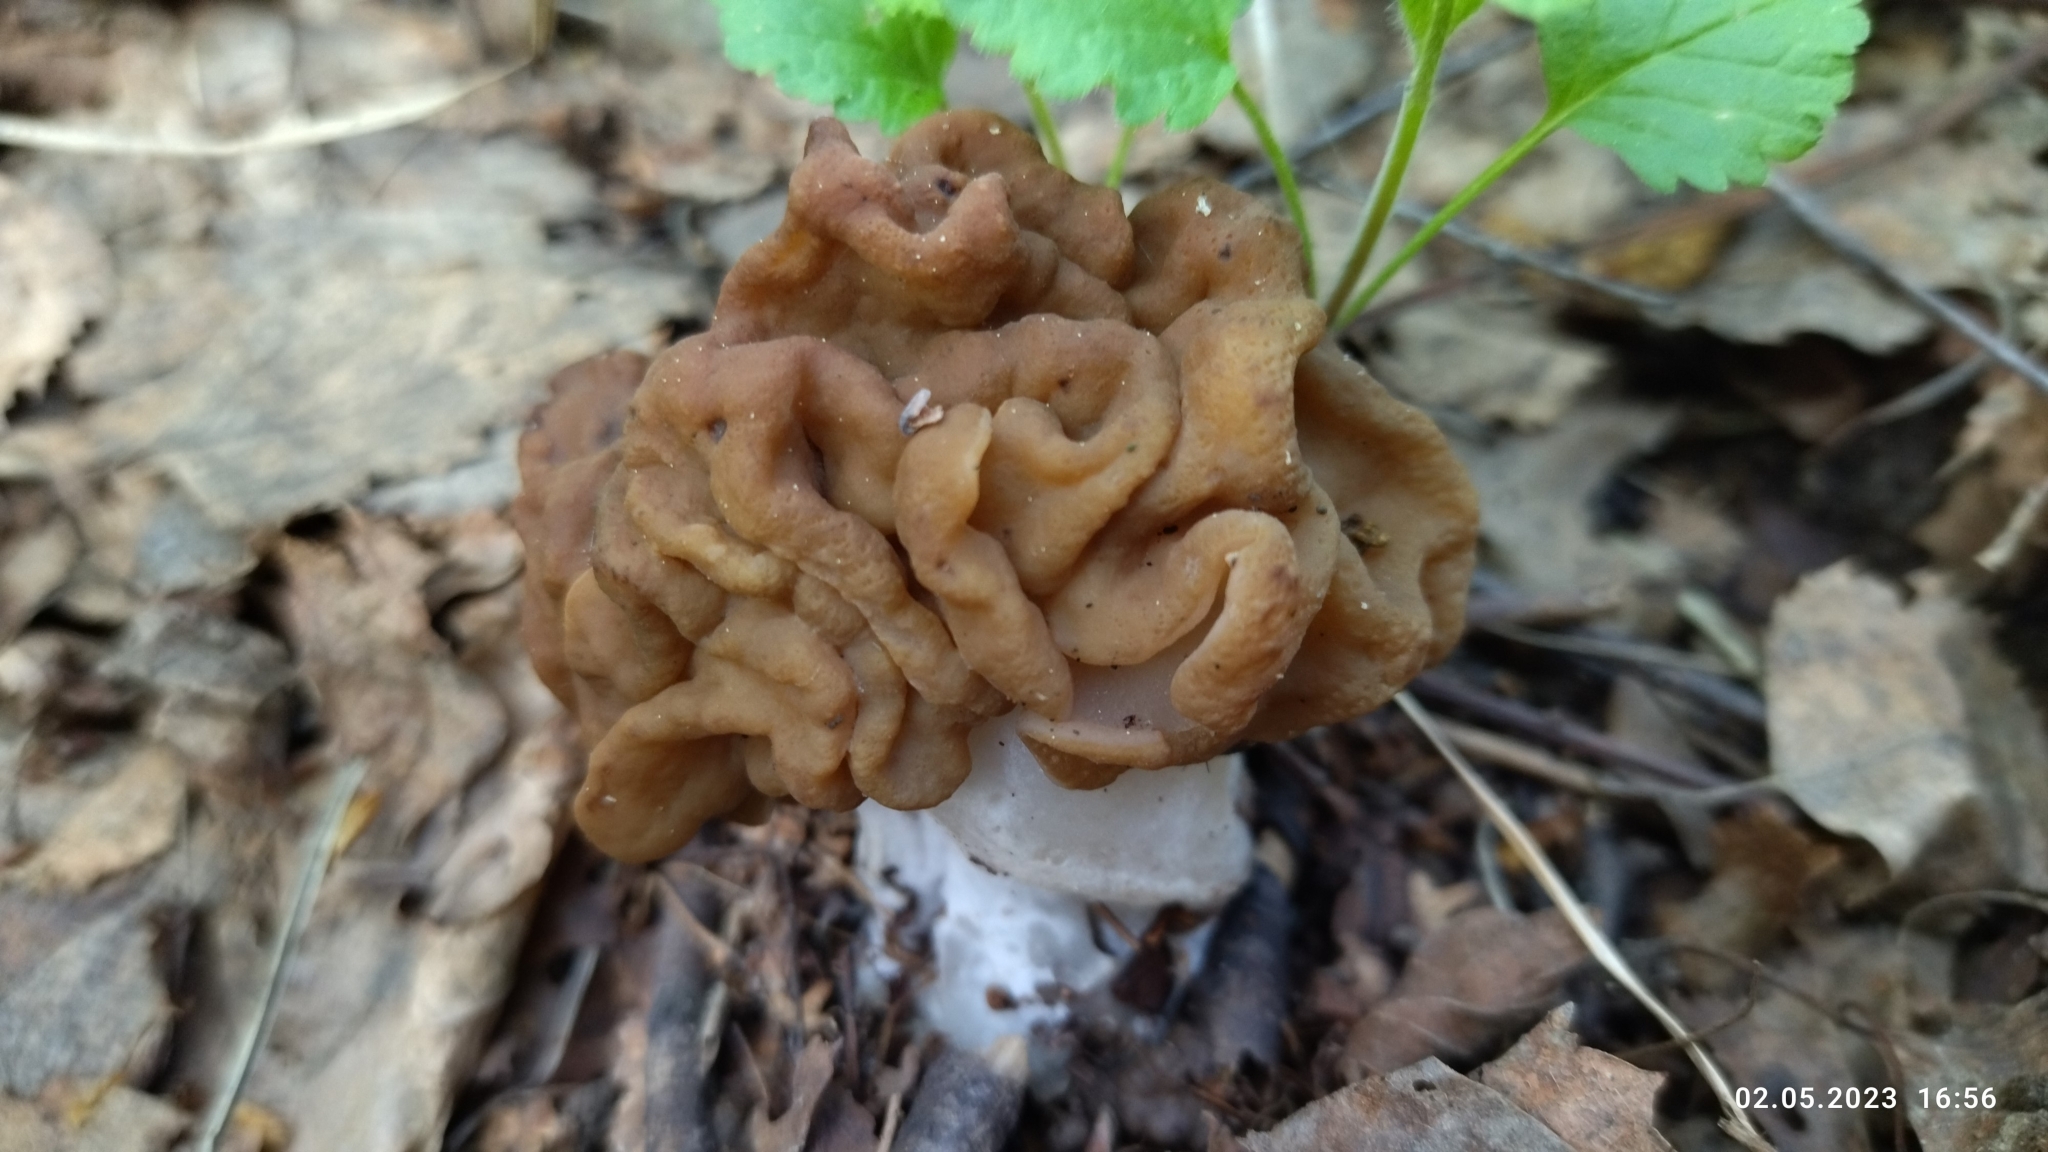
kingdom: Fungi
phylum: Ascomycota
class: Pezizomycetes
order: Pezizales
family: Discinaceae
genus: Gyromitra
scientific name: Gyromitra gigas
